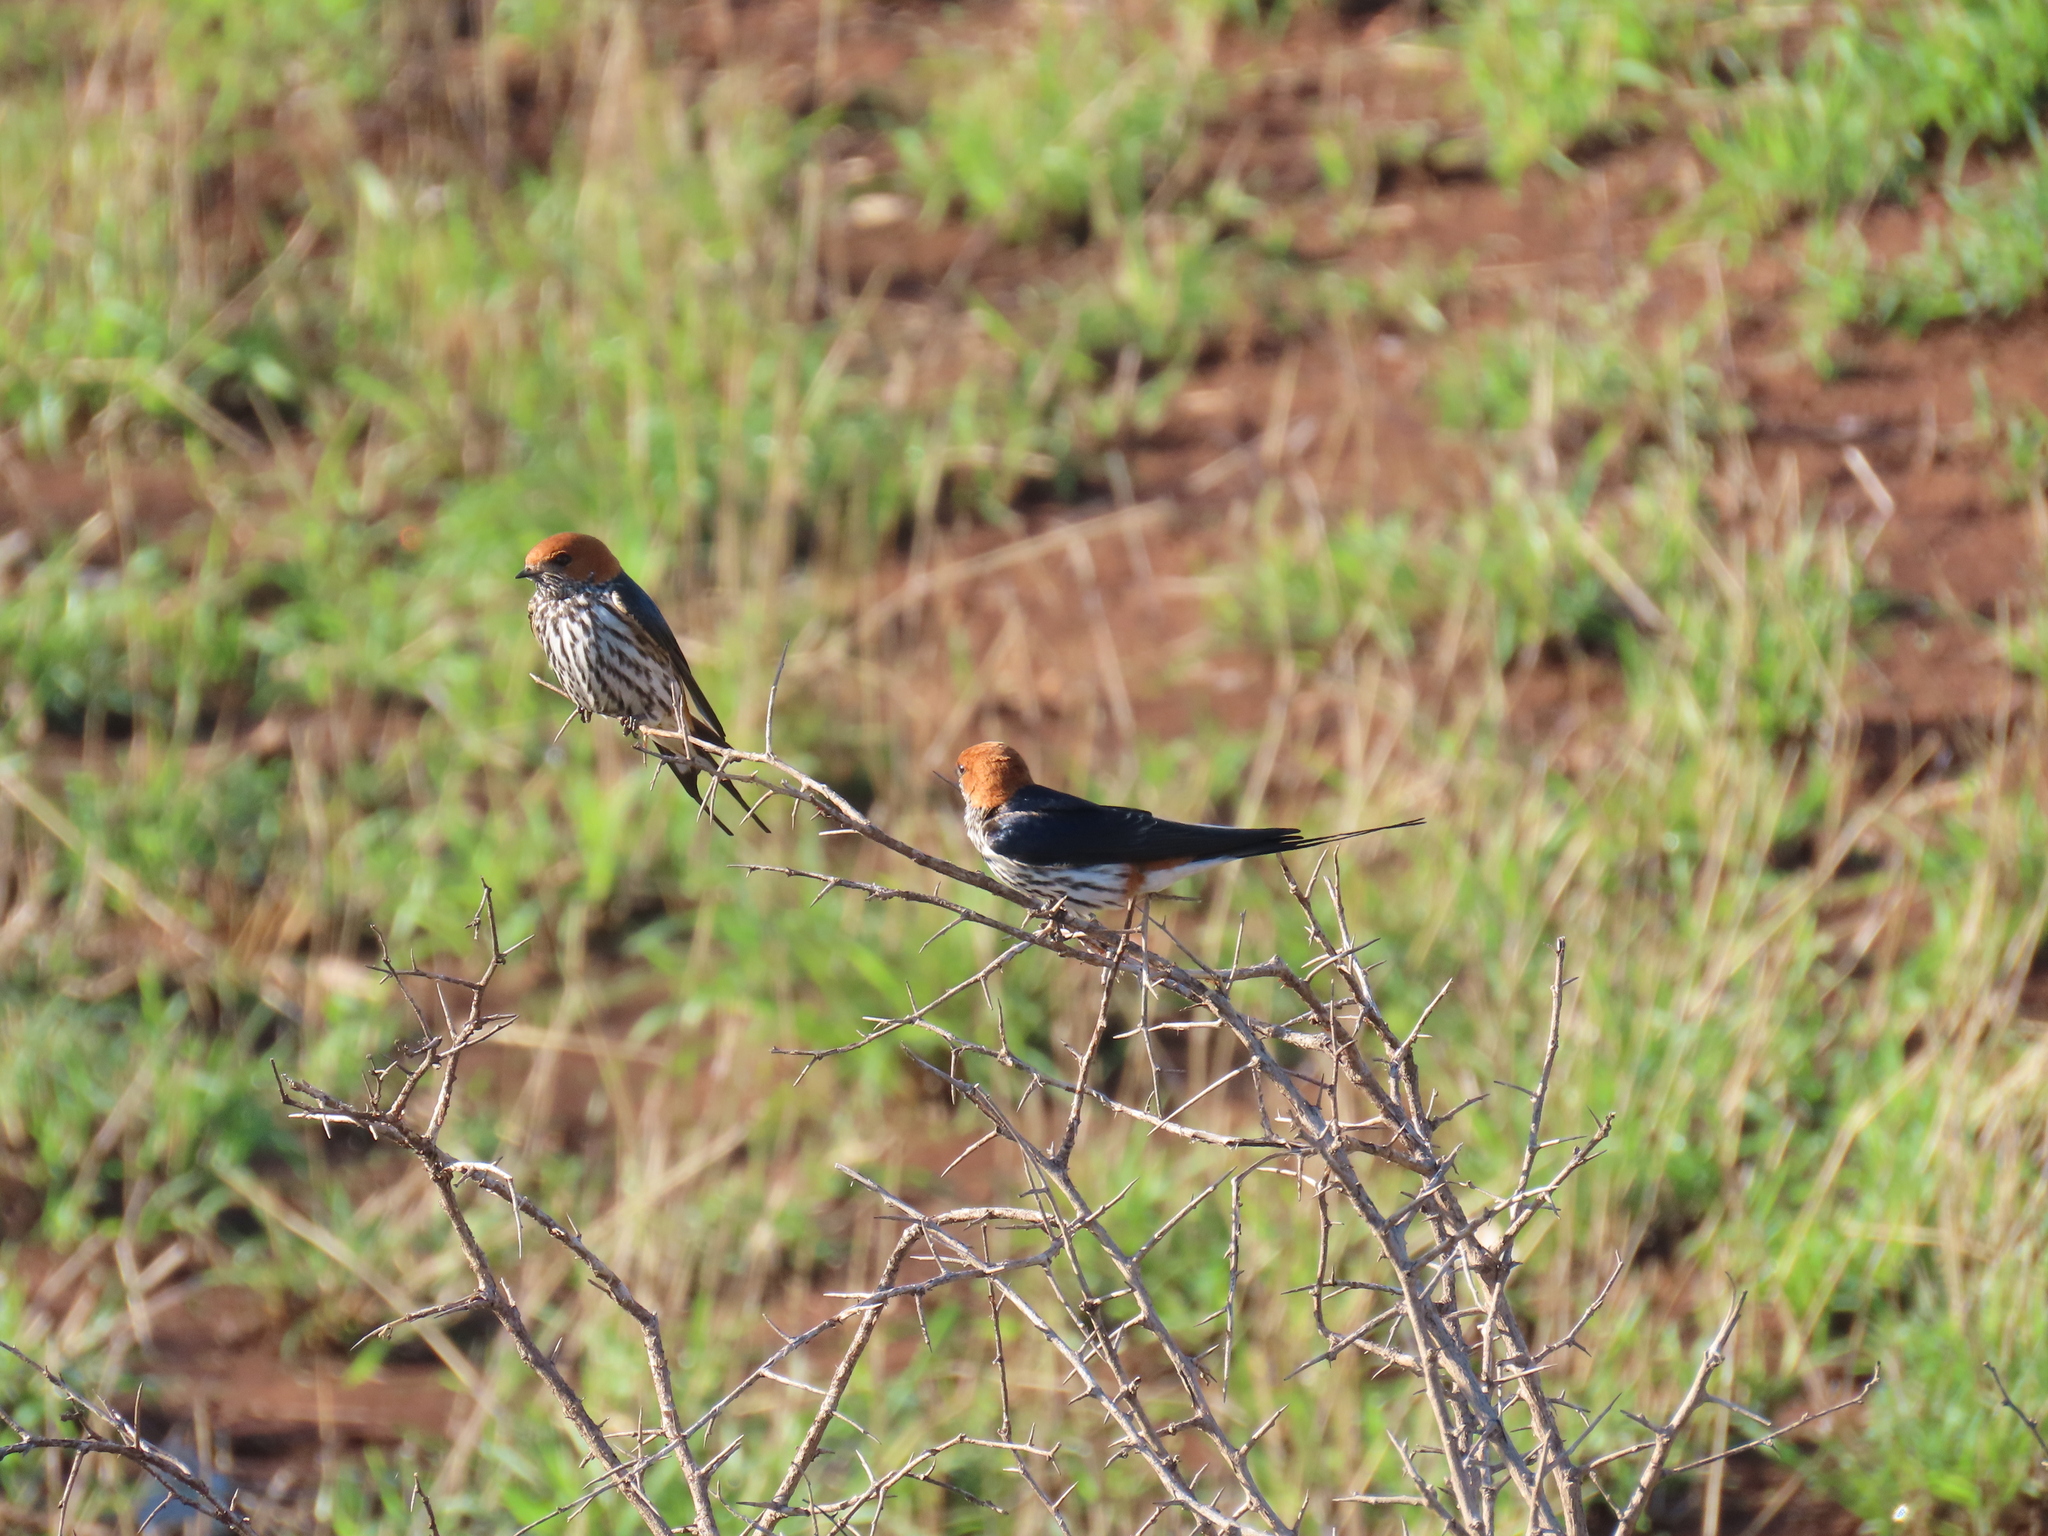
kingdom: Animalia
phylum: Chordata
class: Aves
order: Passeriformes
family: Hirundinidae
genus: Cecropis
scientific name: Cecropis abyssinica
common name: Lesser striped-swallow
